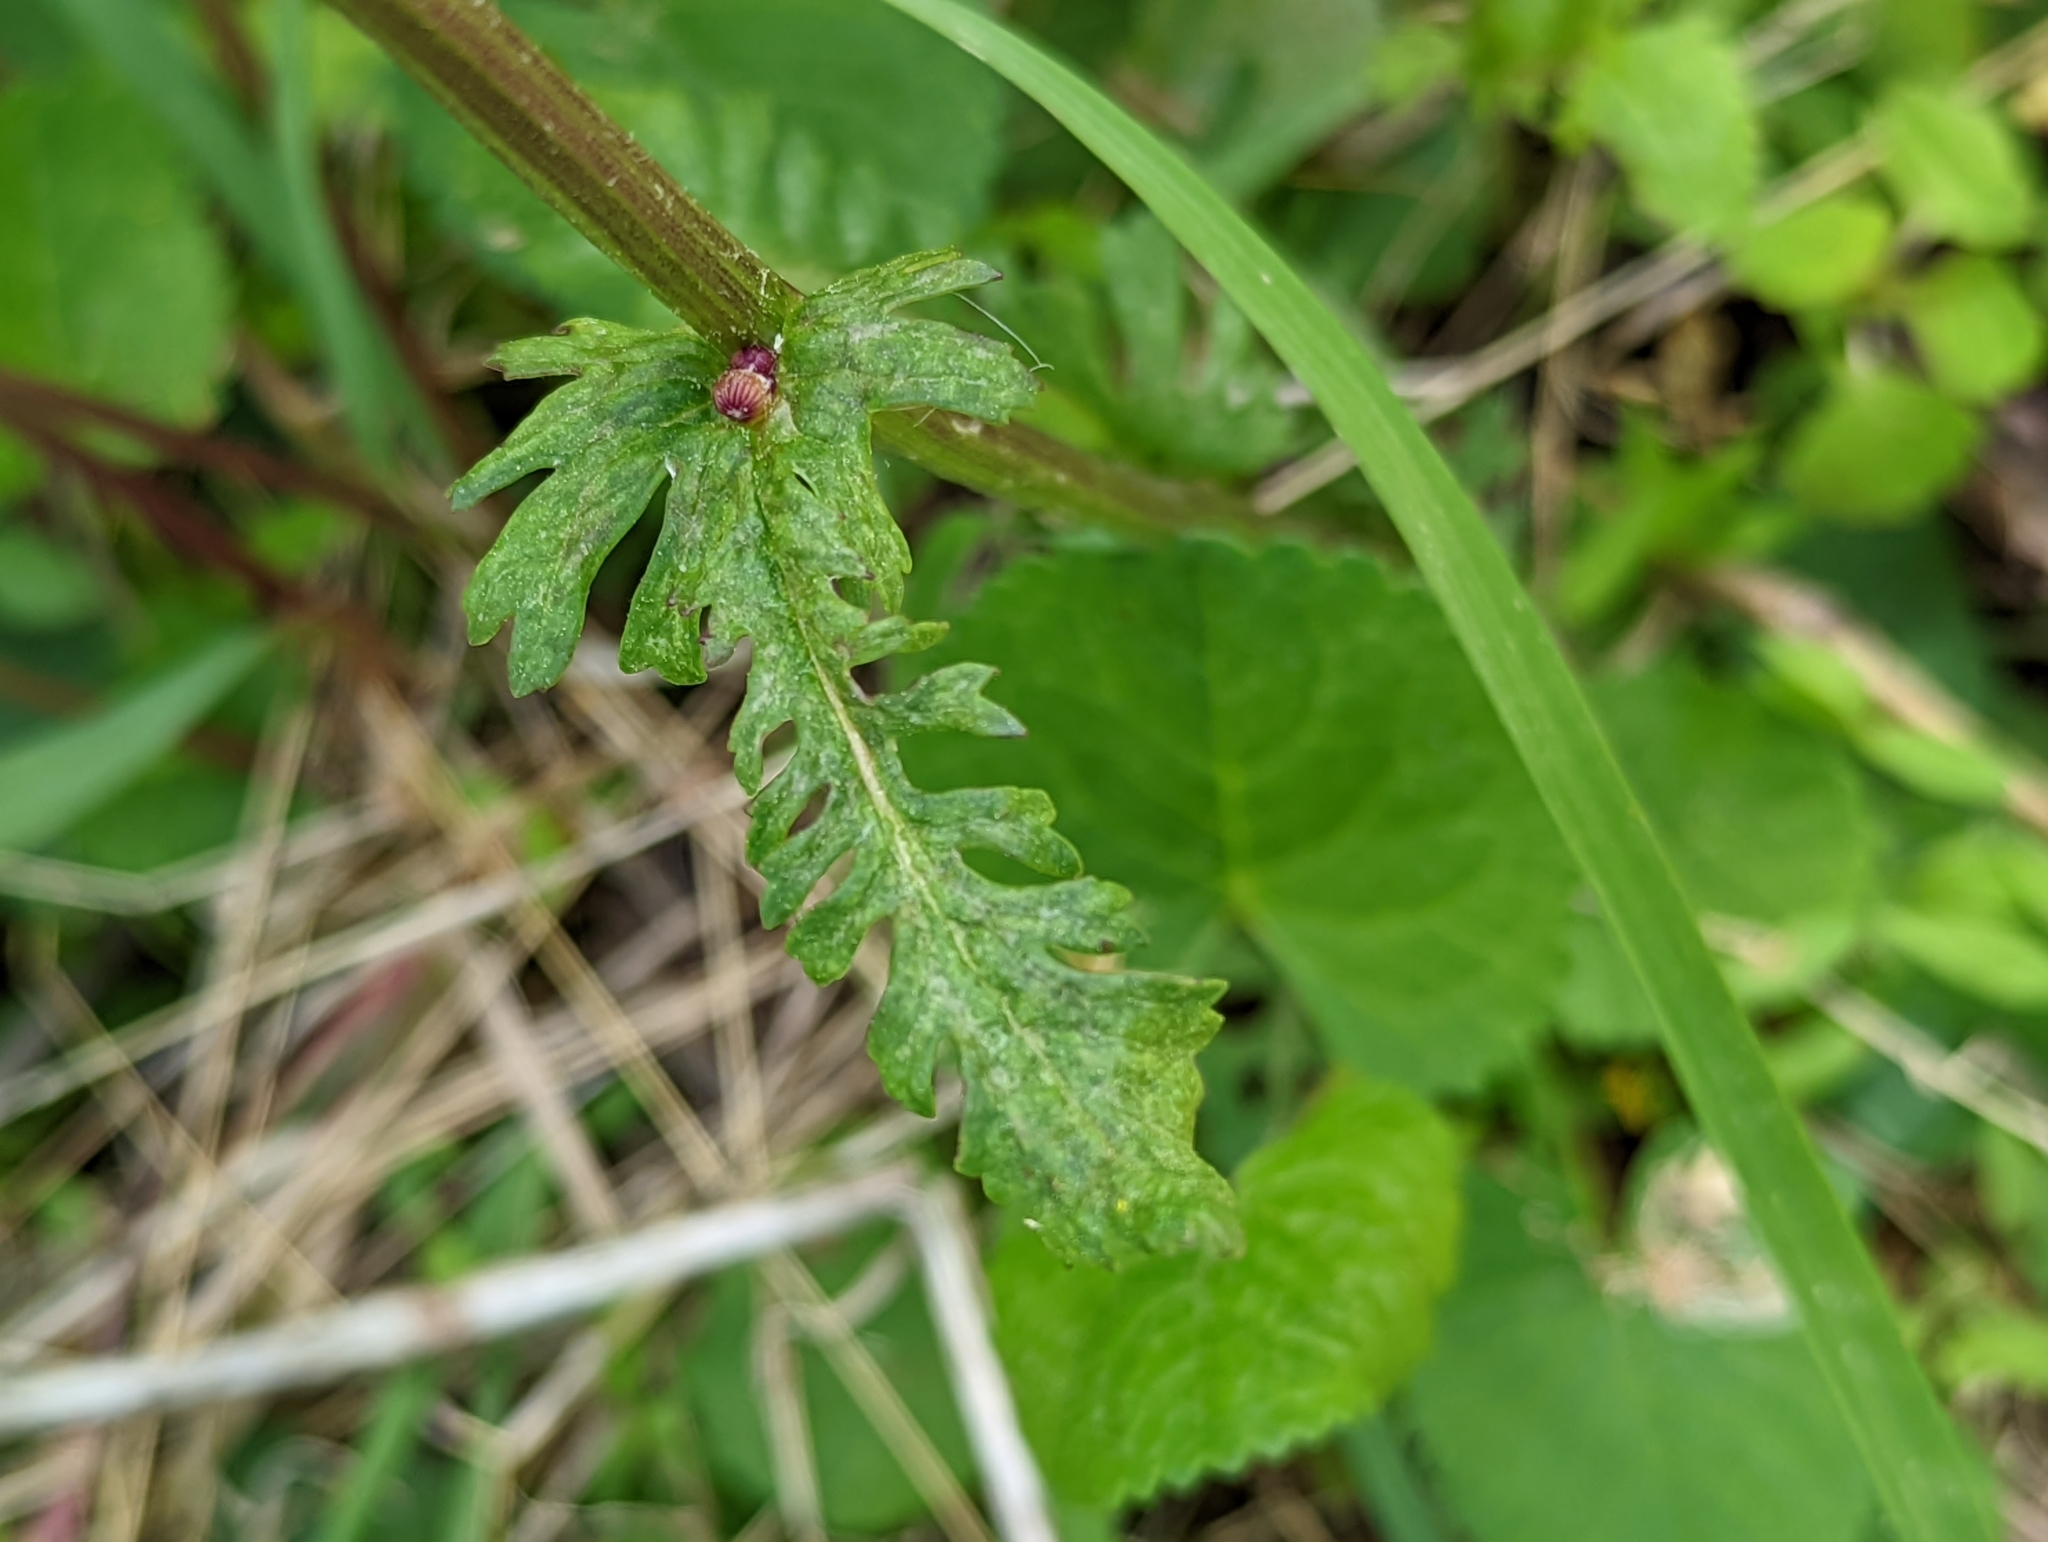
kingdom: Plantae
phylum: Tracheophyta
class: Magnoliopsida
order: Asterales
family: Asteraceae
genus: Packera
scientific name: Packera aurea
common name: Golden groundsel
